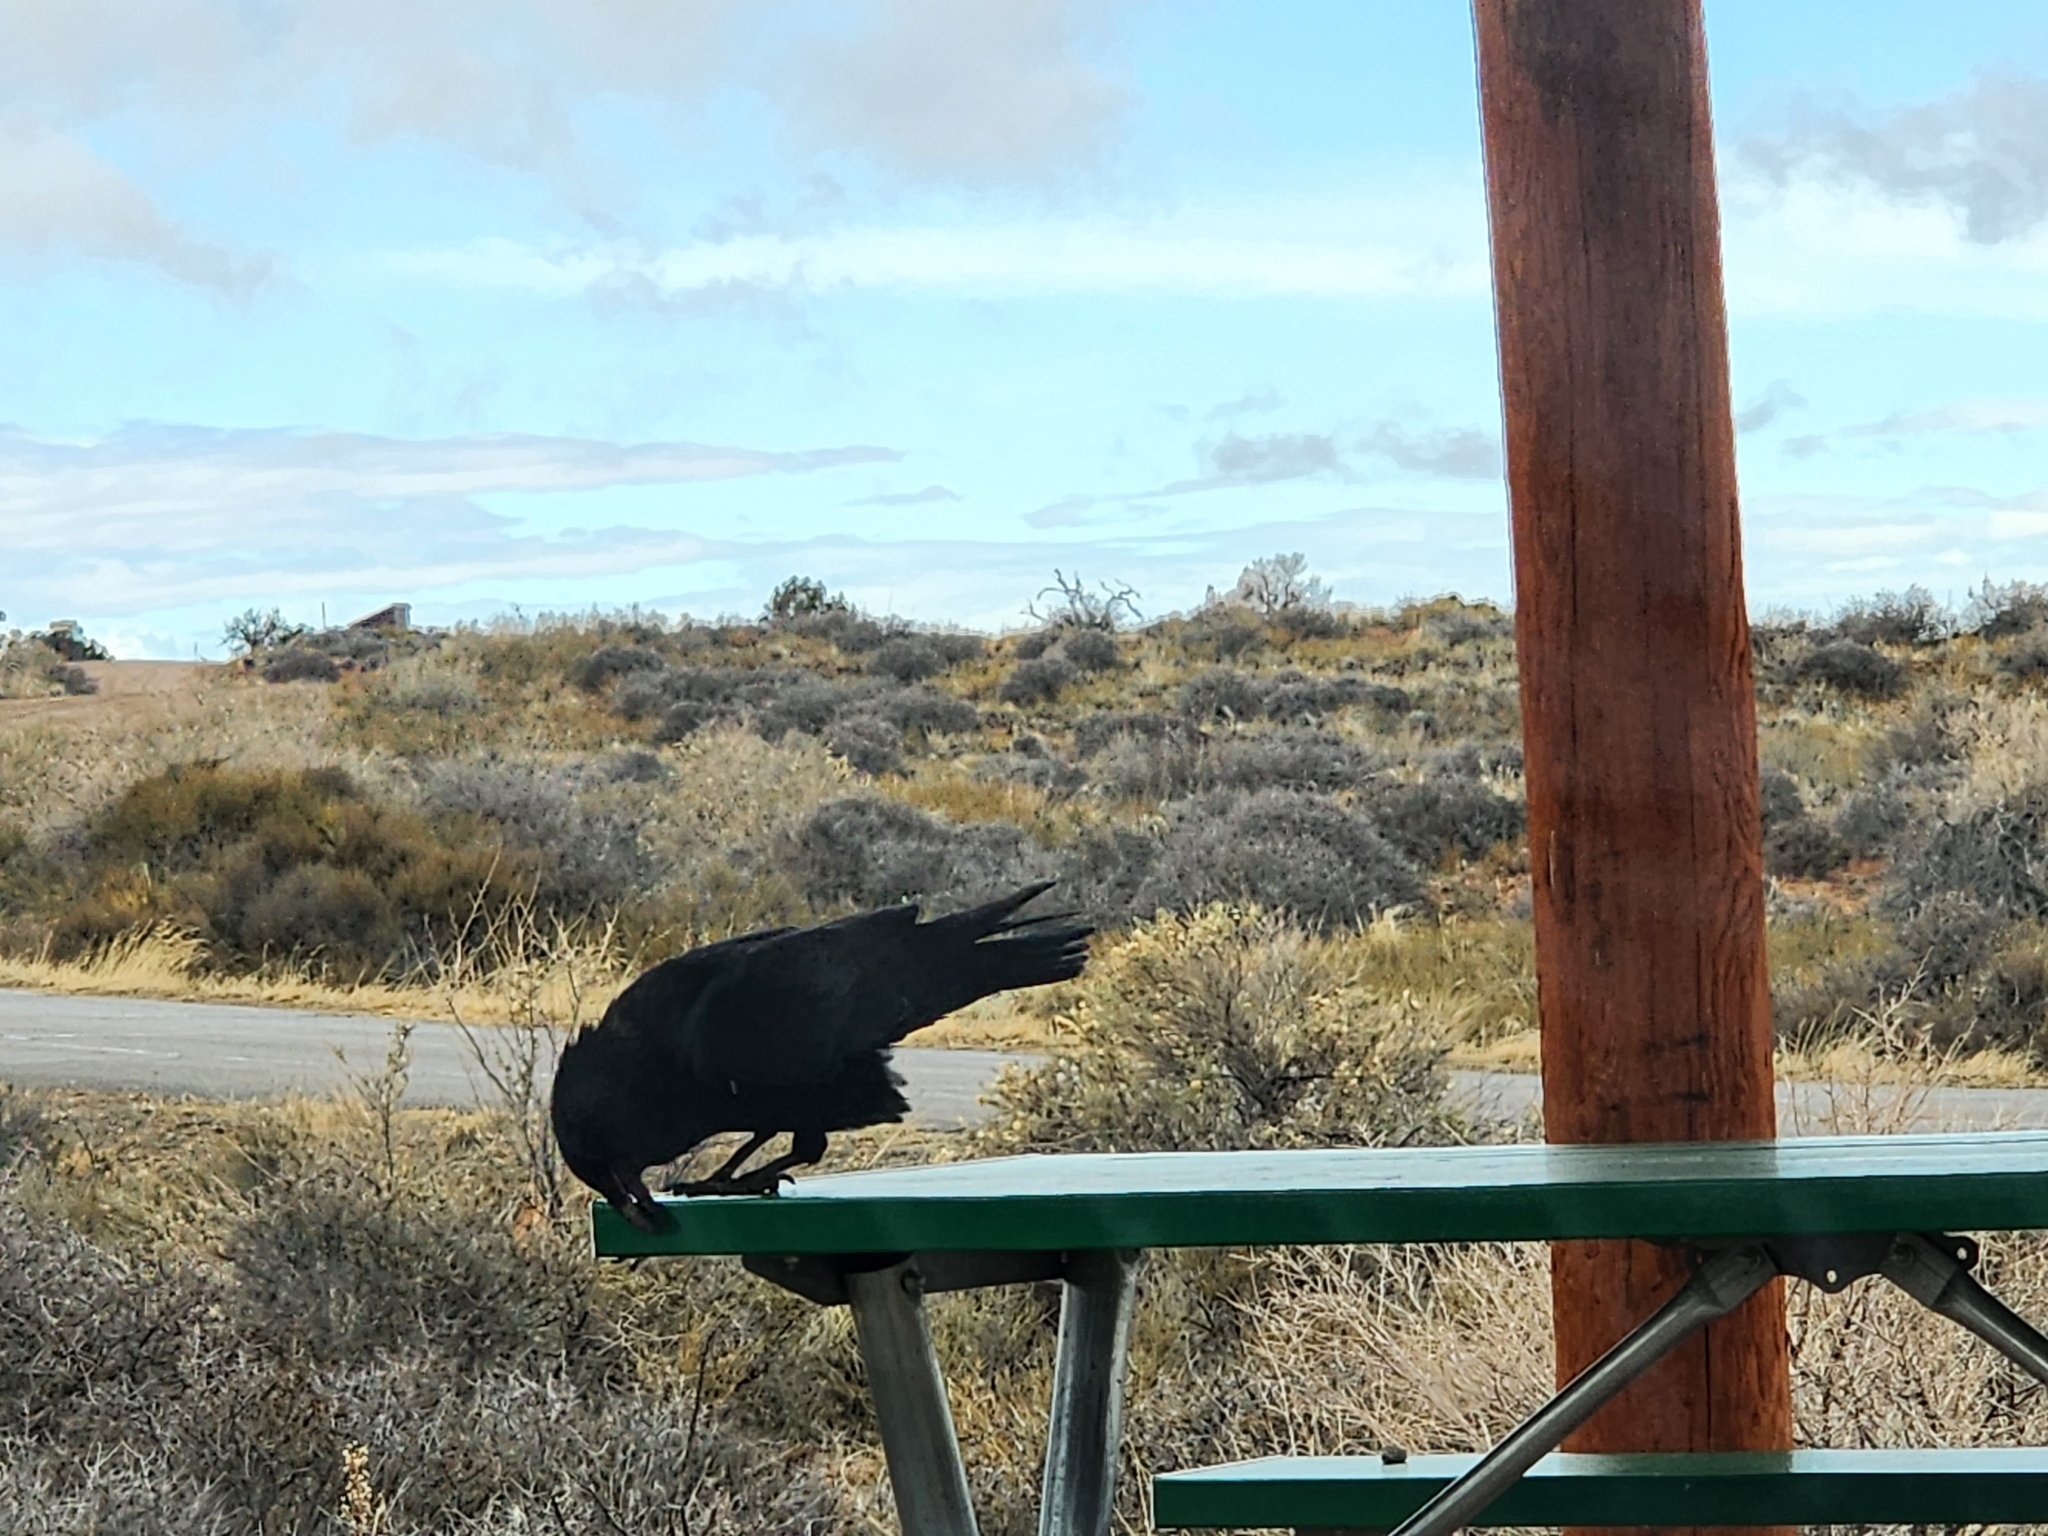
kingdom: Animalia
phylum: Chordata
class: Aves
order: Passeriformes
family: Corvidae
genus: Corvus
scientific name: Corvus corax
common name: Common raven
